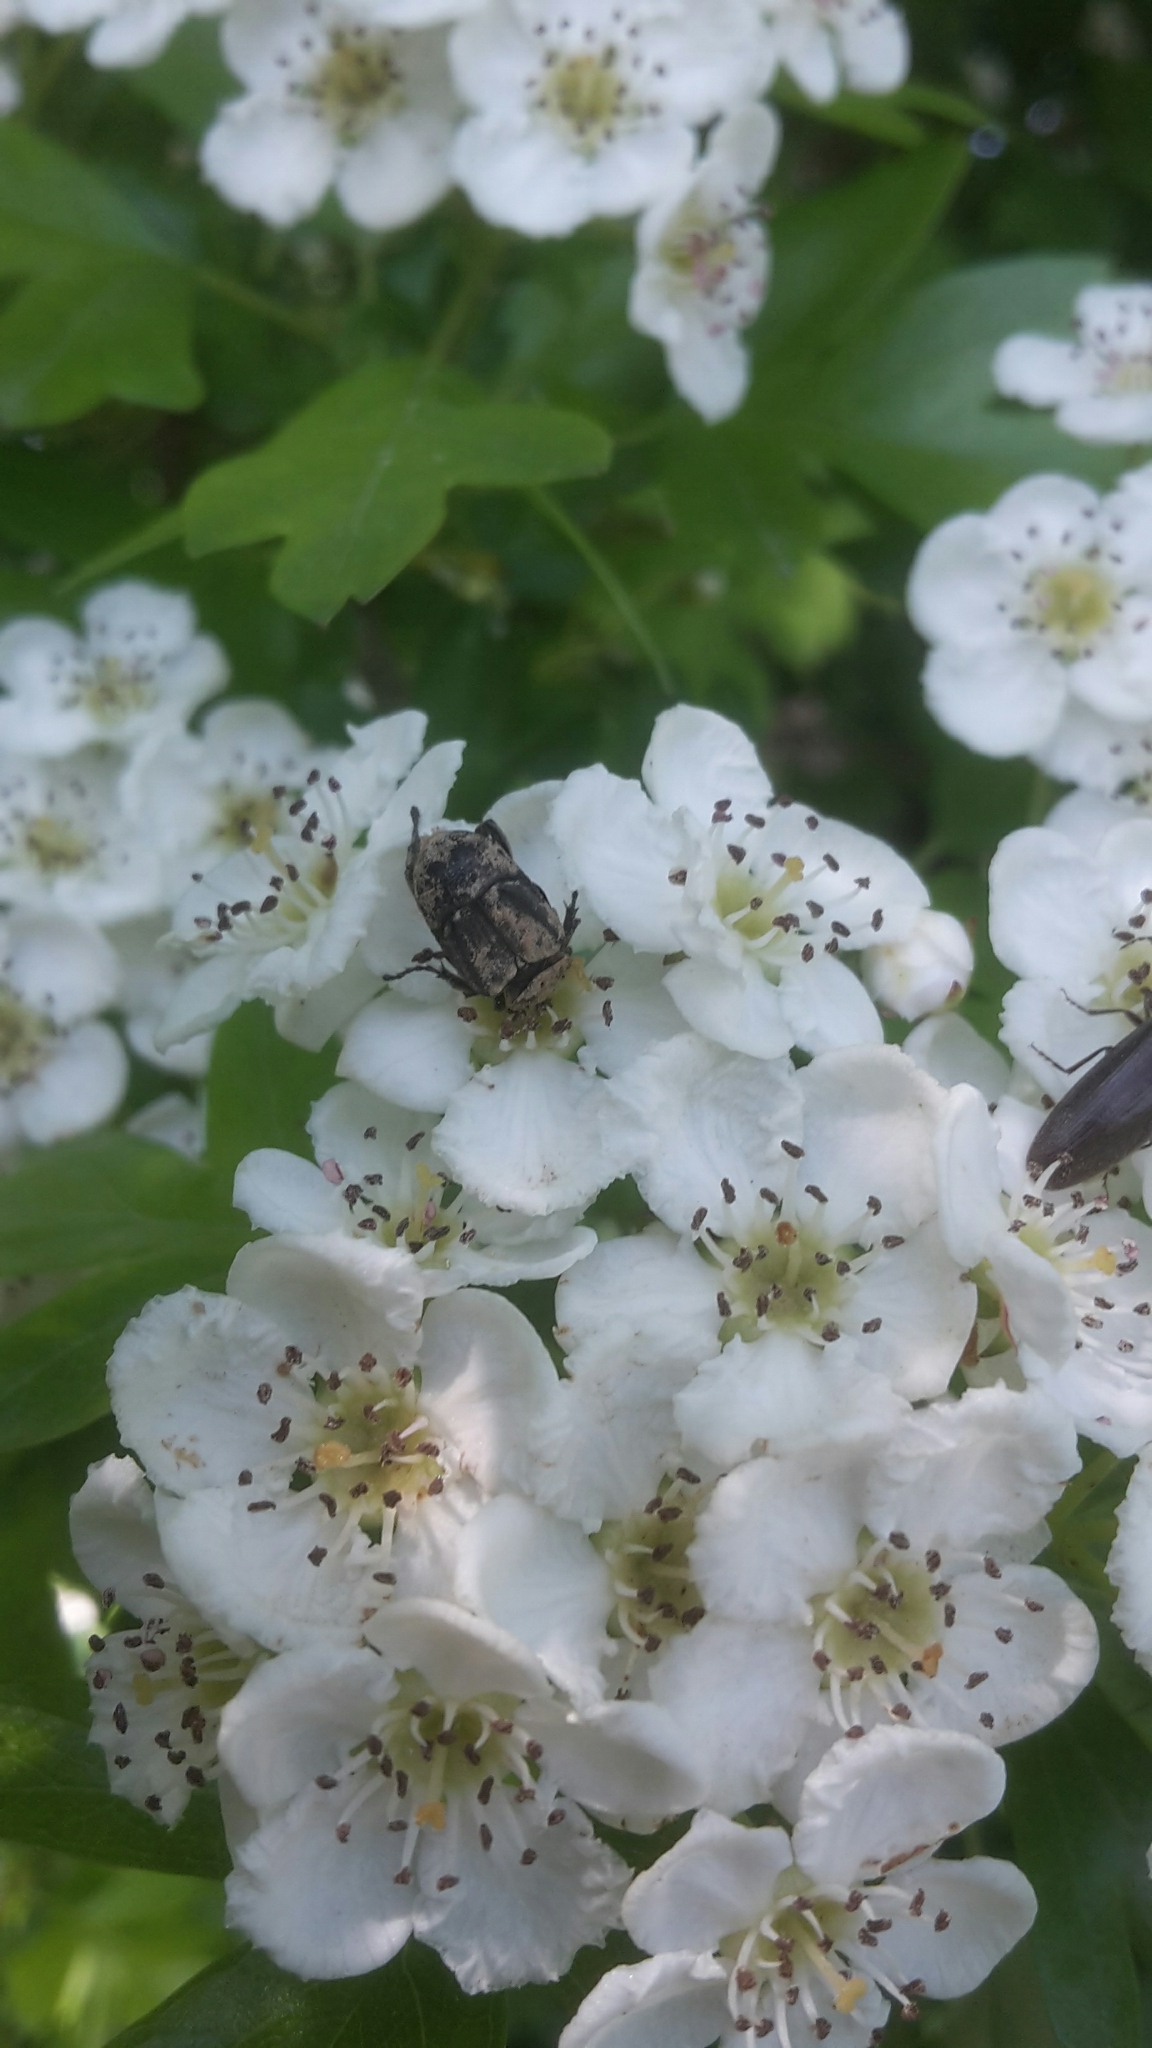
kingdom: Animalia
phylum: Arthropoda
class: Insecta
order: Coleoptera
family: Scarabaeidae
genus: Valgus
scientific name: Valgus hemipterus
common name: Bug flower chafer
